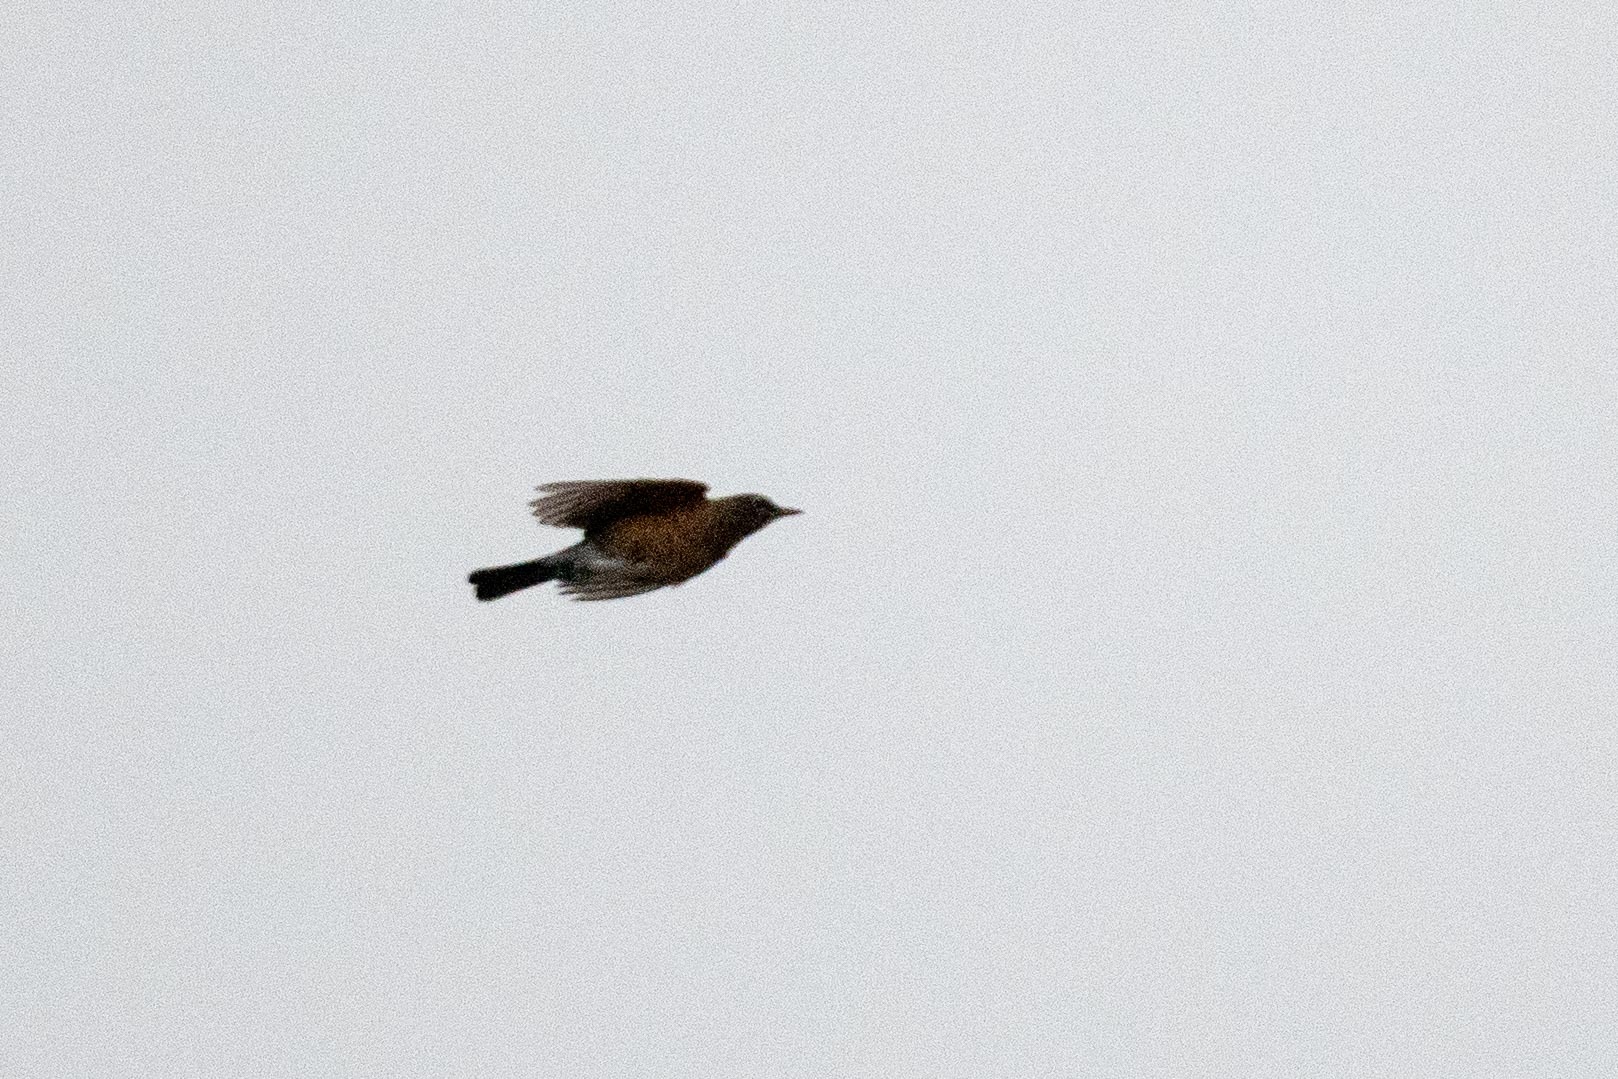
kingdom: Animalia
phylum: Chordata
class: Aves
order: Passeriformes
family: Turdidae
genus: Turdus
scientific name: Turdus migratorius
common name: American robin
